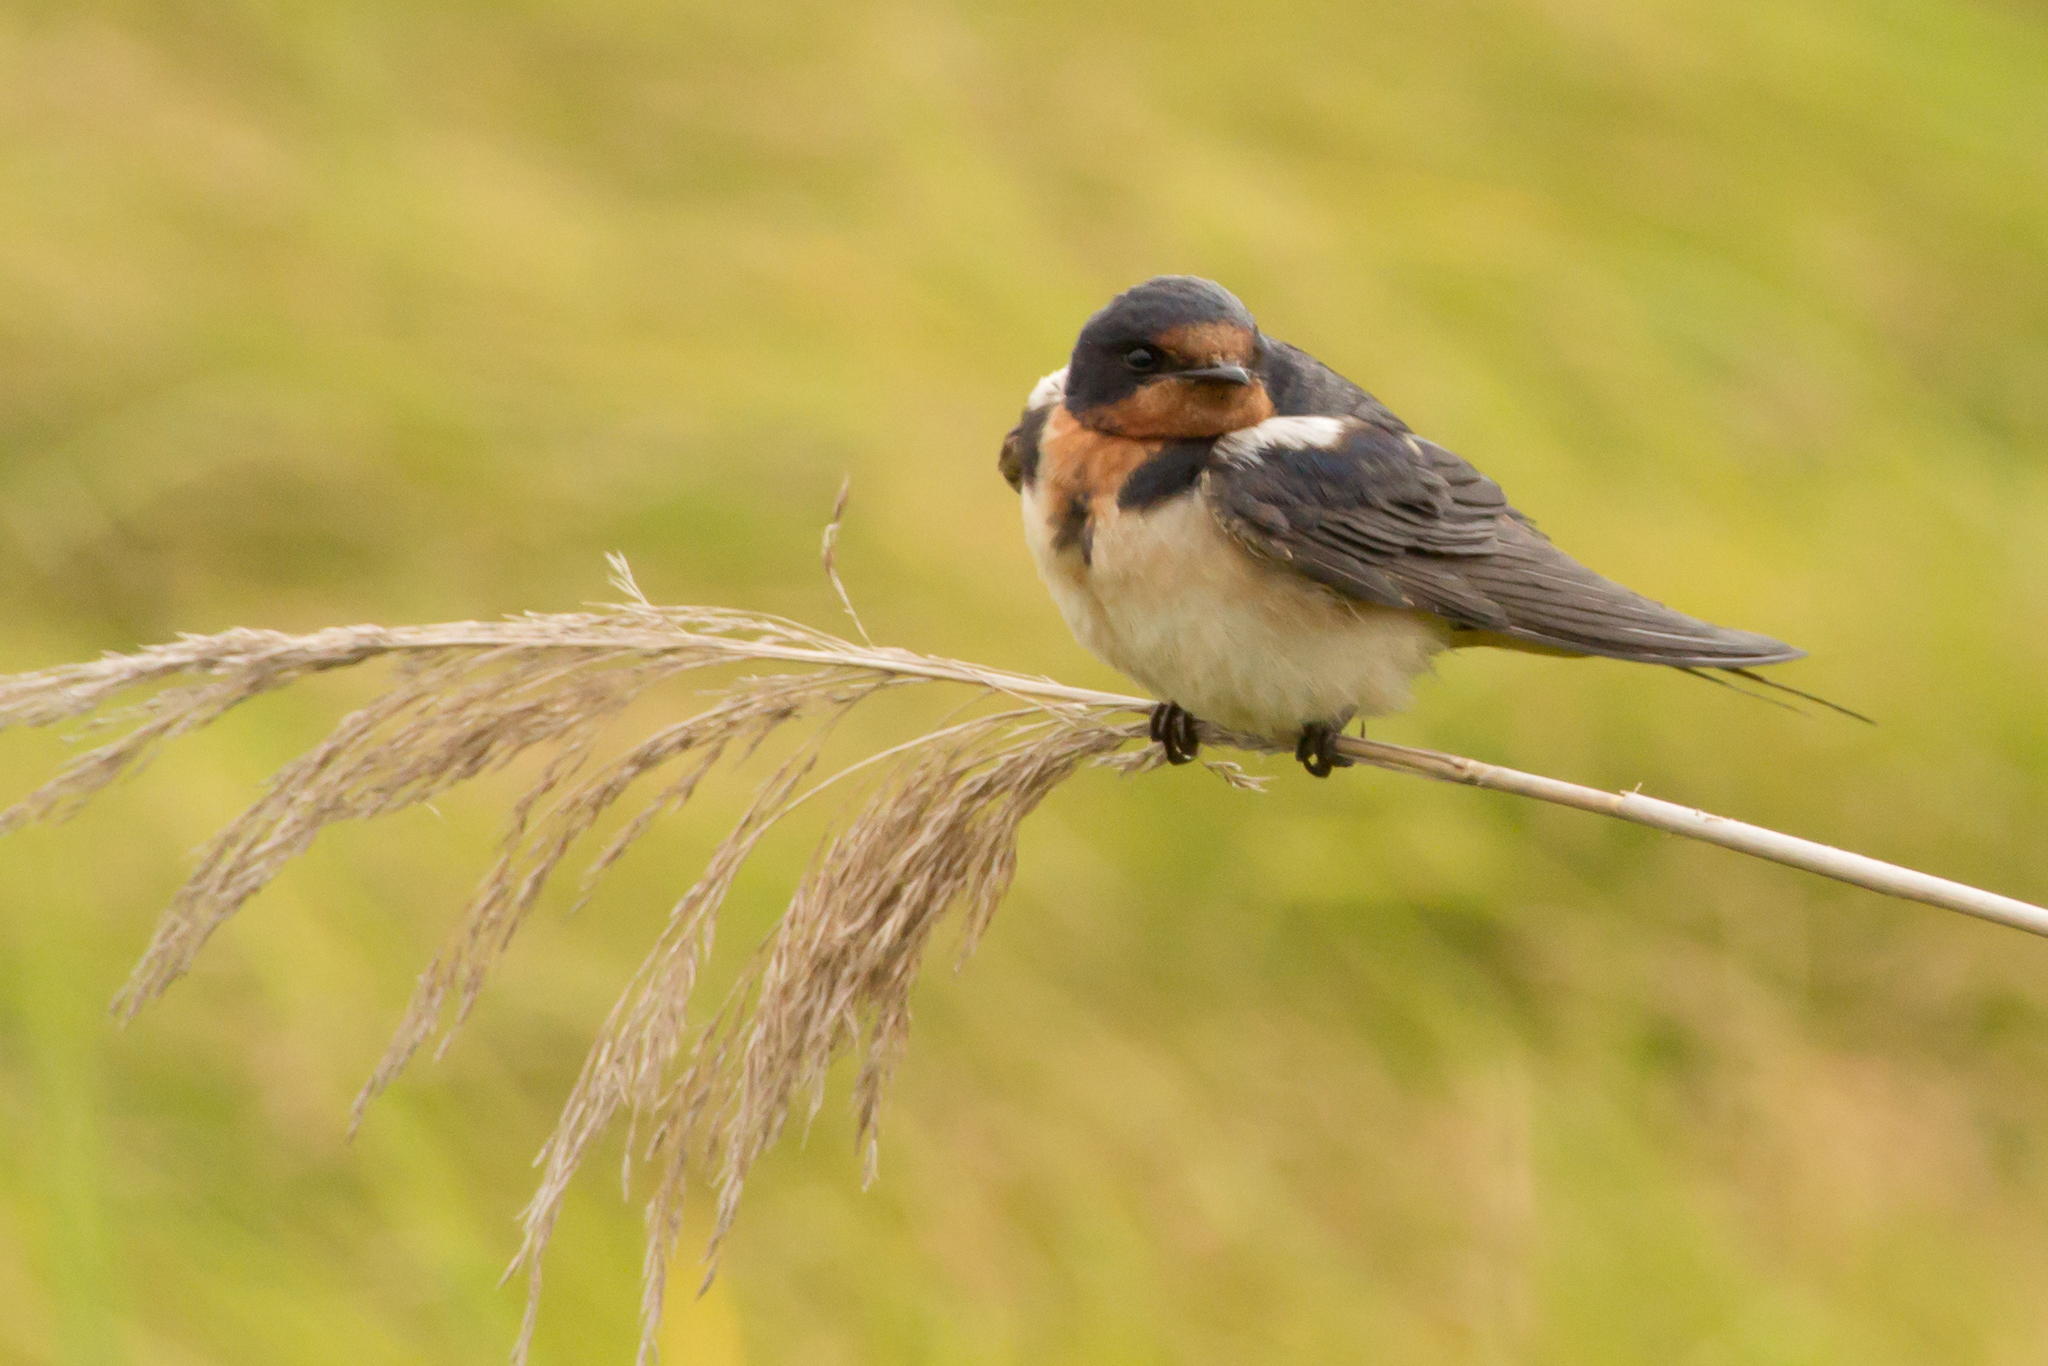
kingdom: Animalia
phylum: Chordata
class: Aves
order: Passeriformes
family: Hirundinidae
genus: Hirundo
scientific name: Hirundo rustica
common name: Barn swallow
